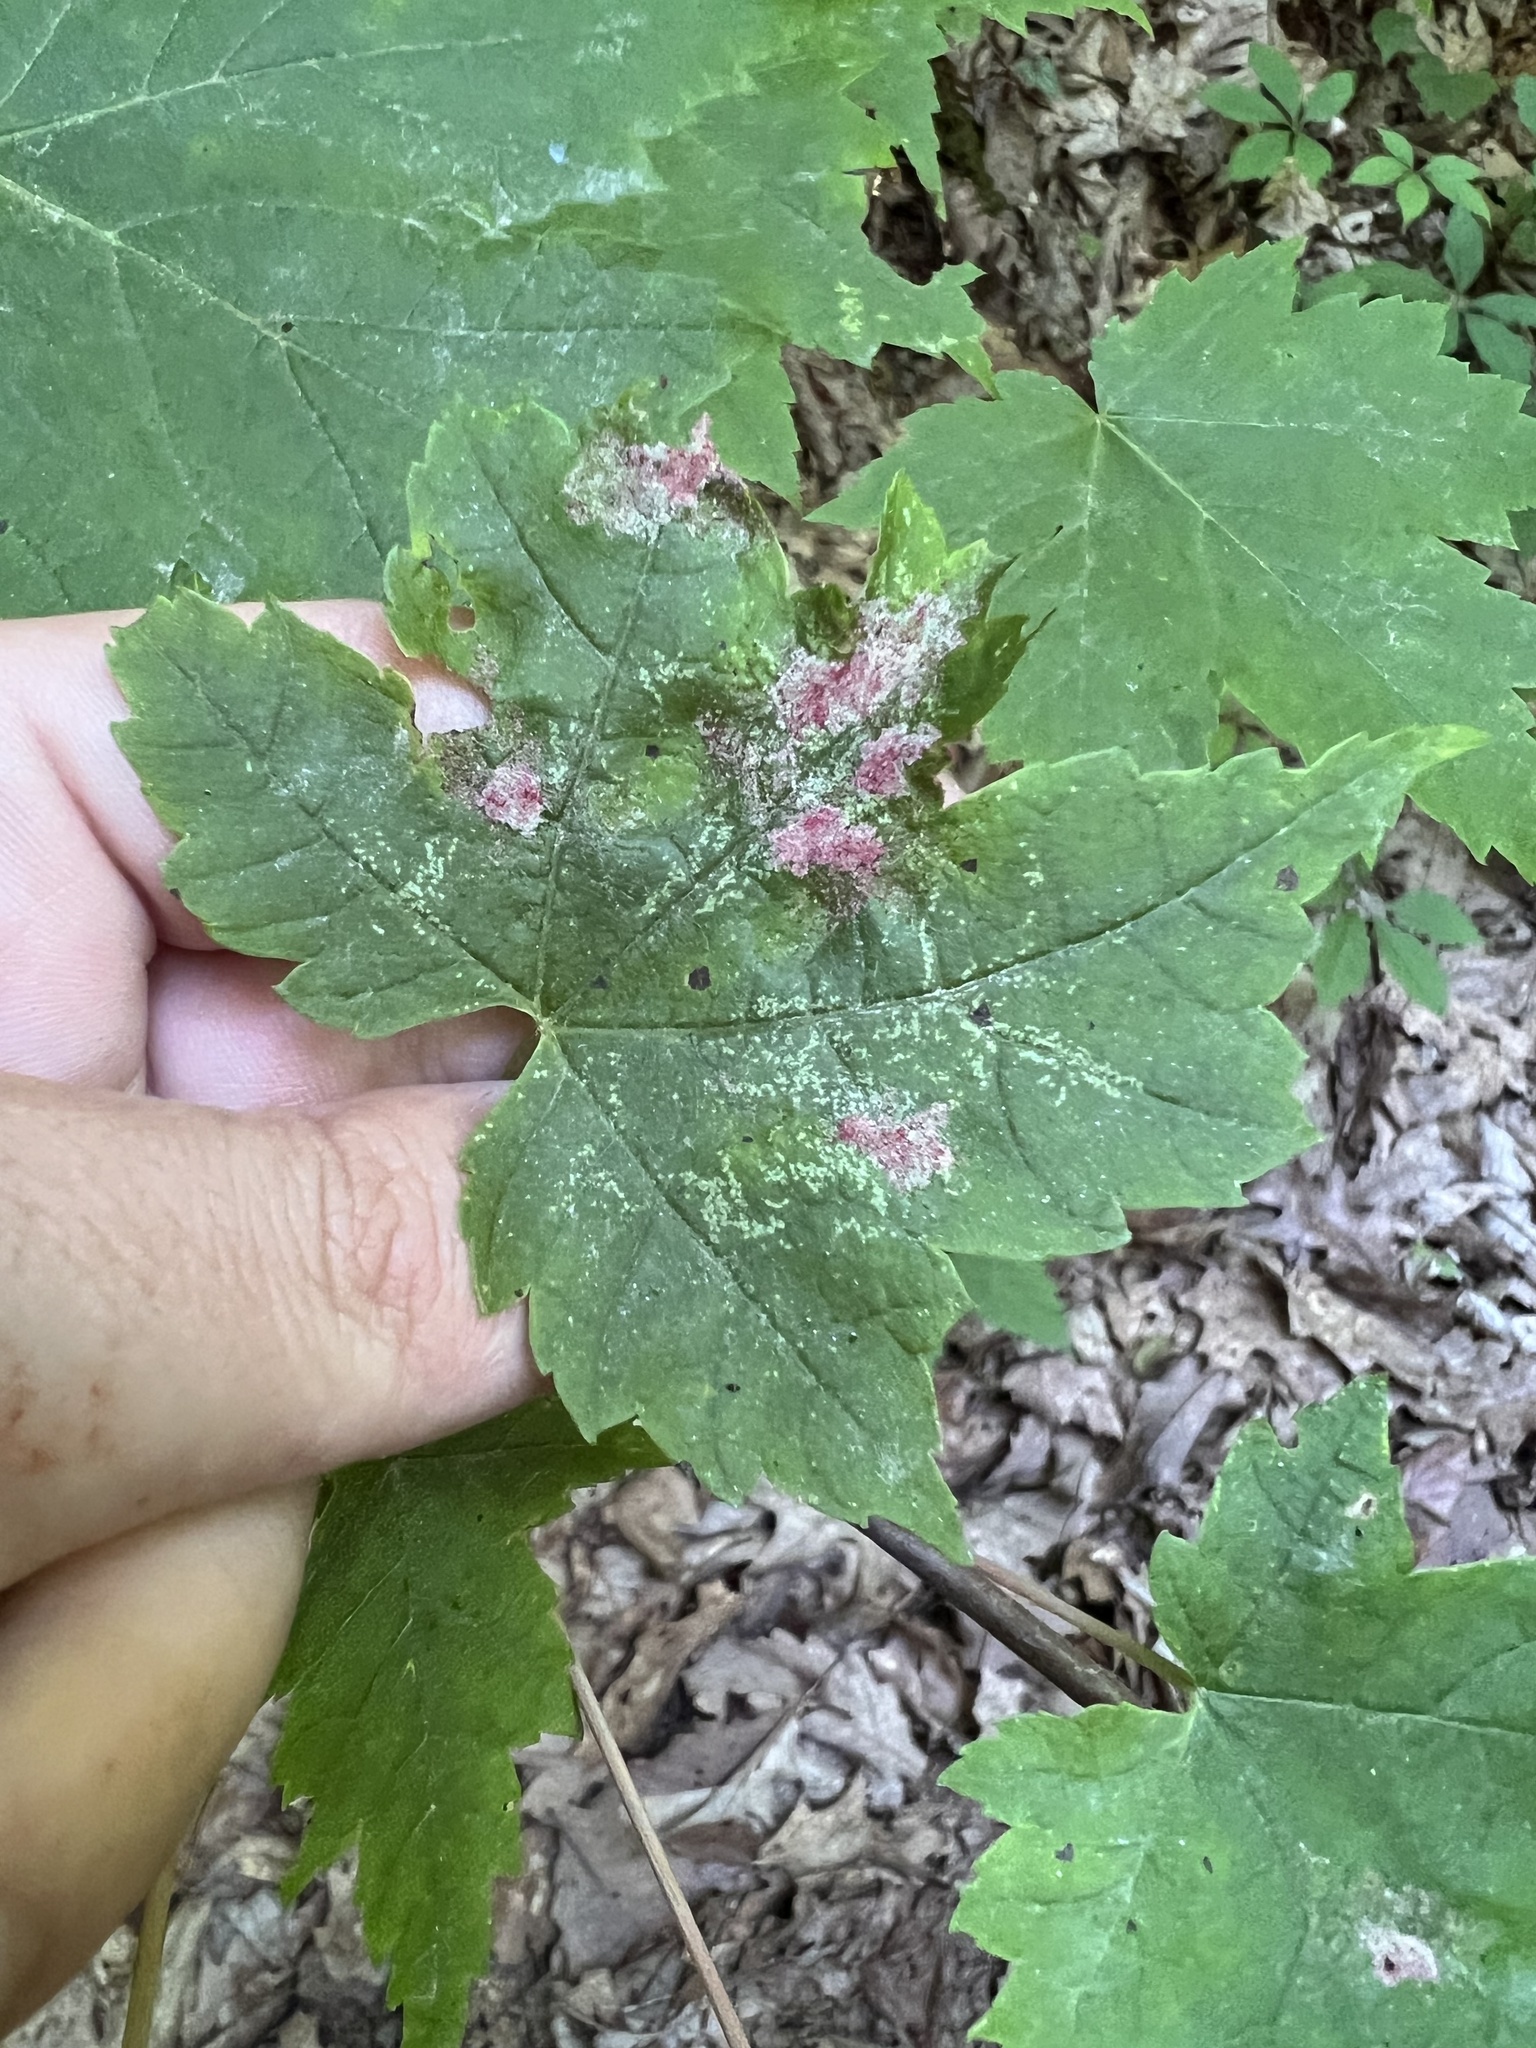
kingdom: Animalia
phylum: Arthropoda
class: Arachnida
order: Trombidiformes
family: Eriophyidae
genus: Aculus
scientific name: Aculus
